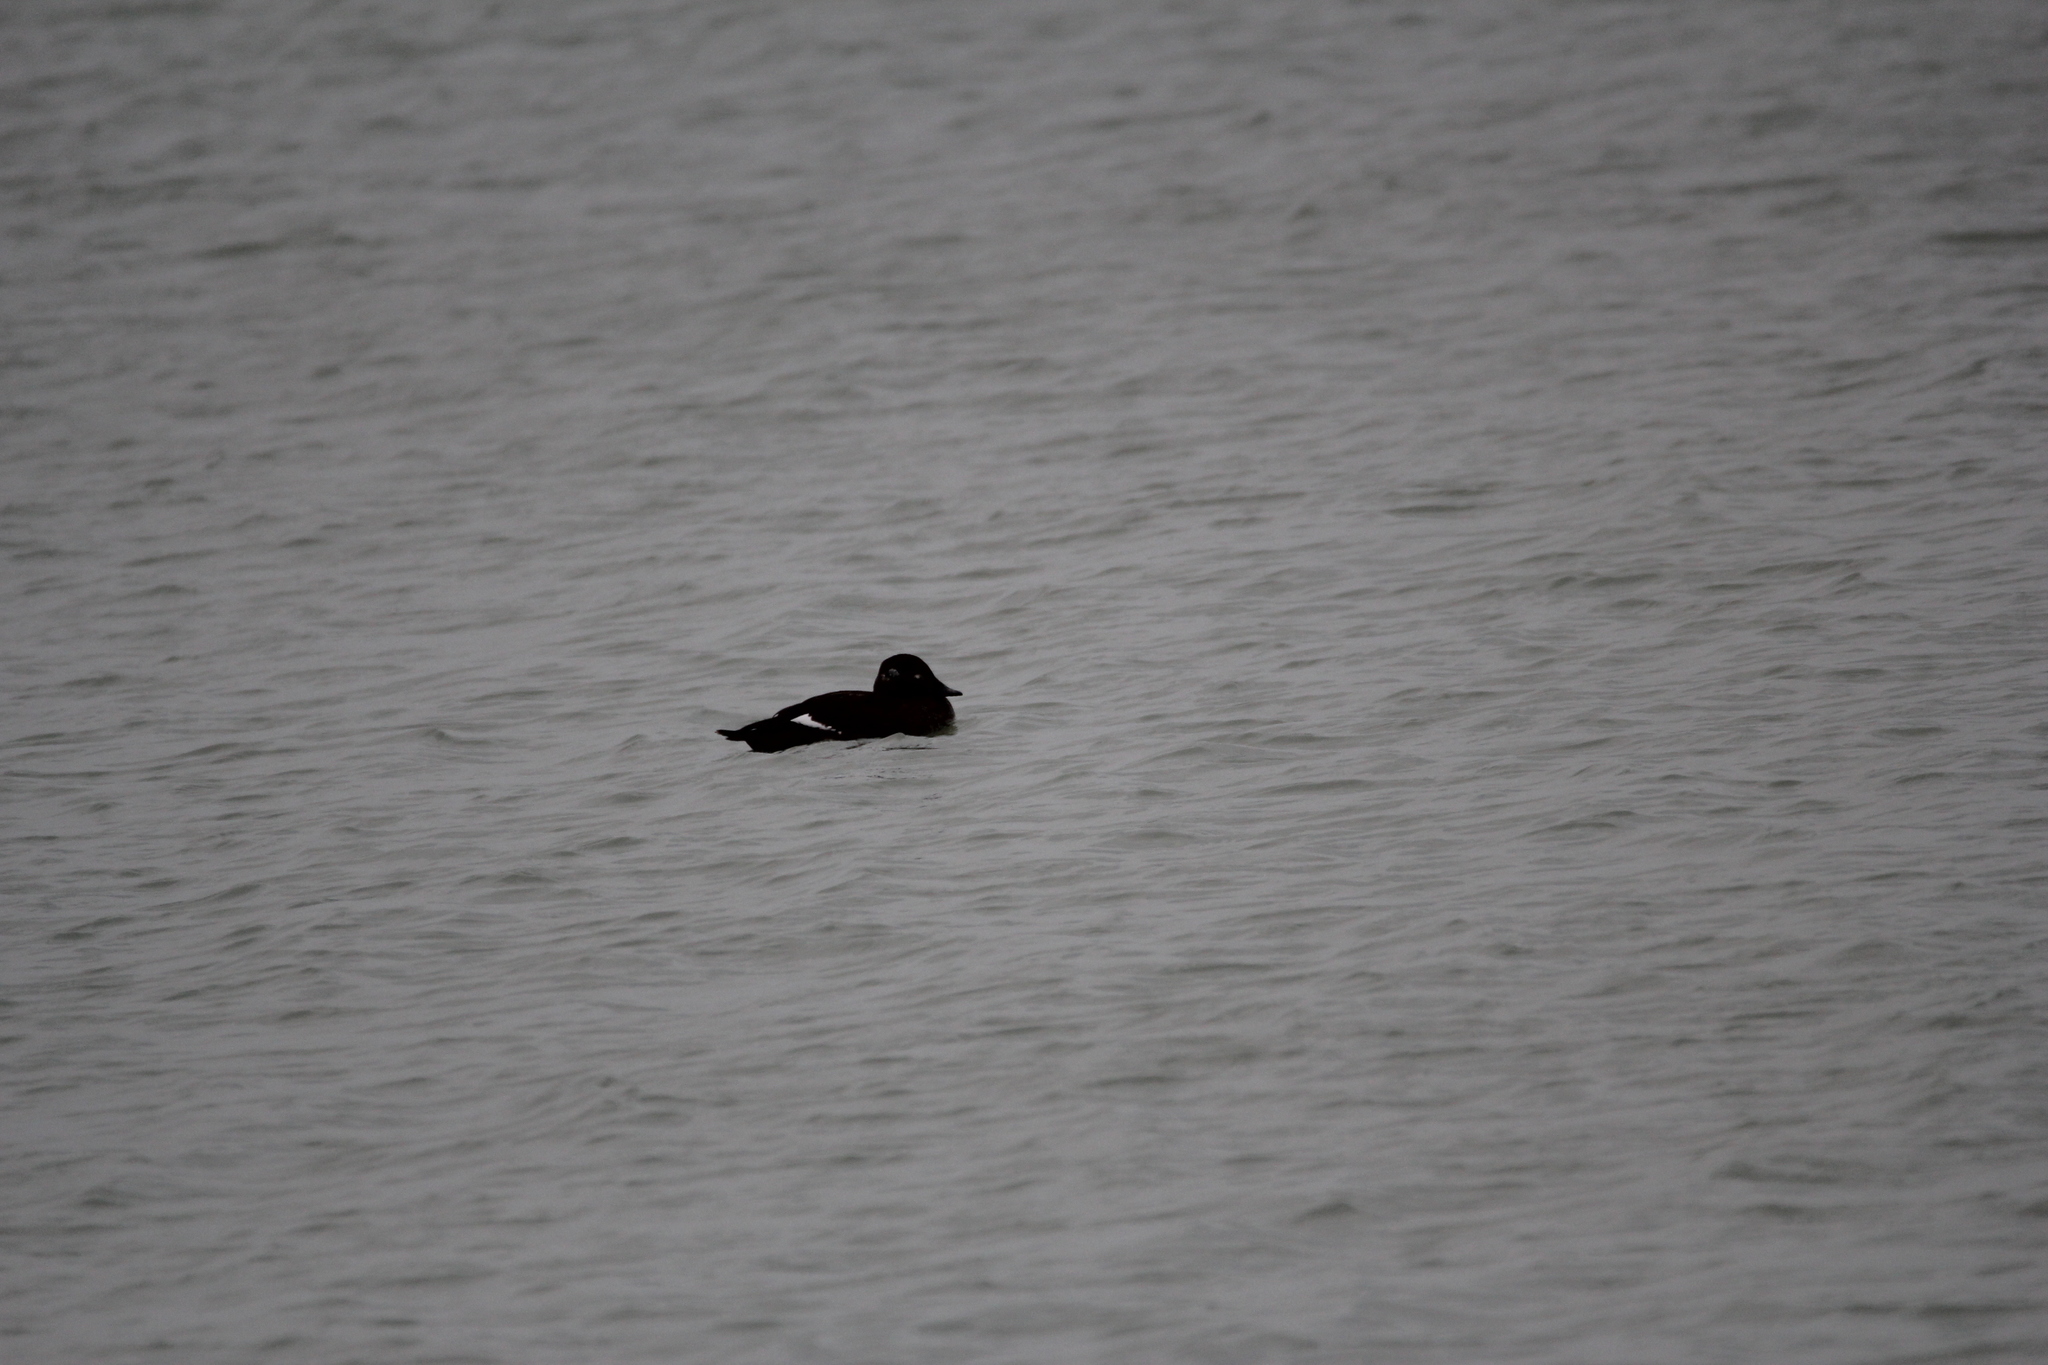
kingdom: Animalia
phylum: Chordata
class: Aves
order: Anseriformes
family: Anatidae
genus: Melanitta
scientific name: Melanitta deglandi
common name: White-winged scoter
